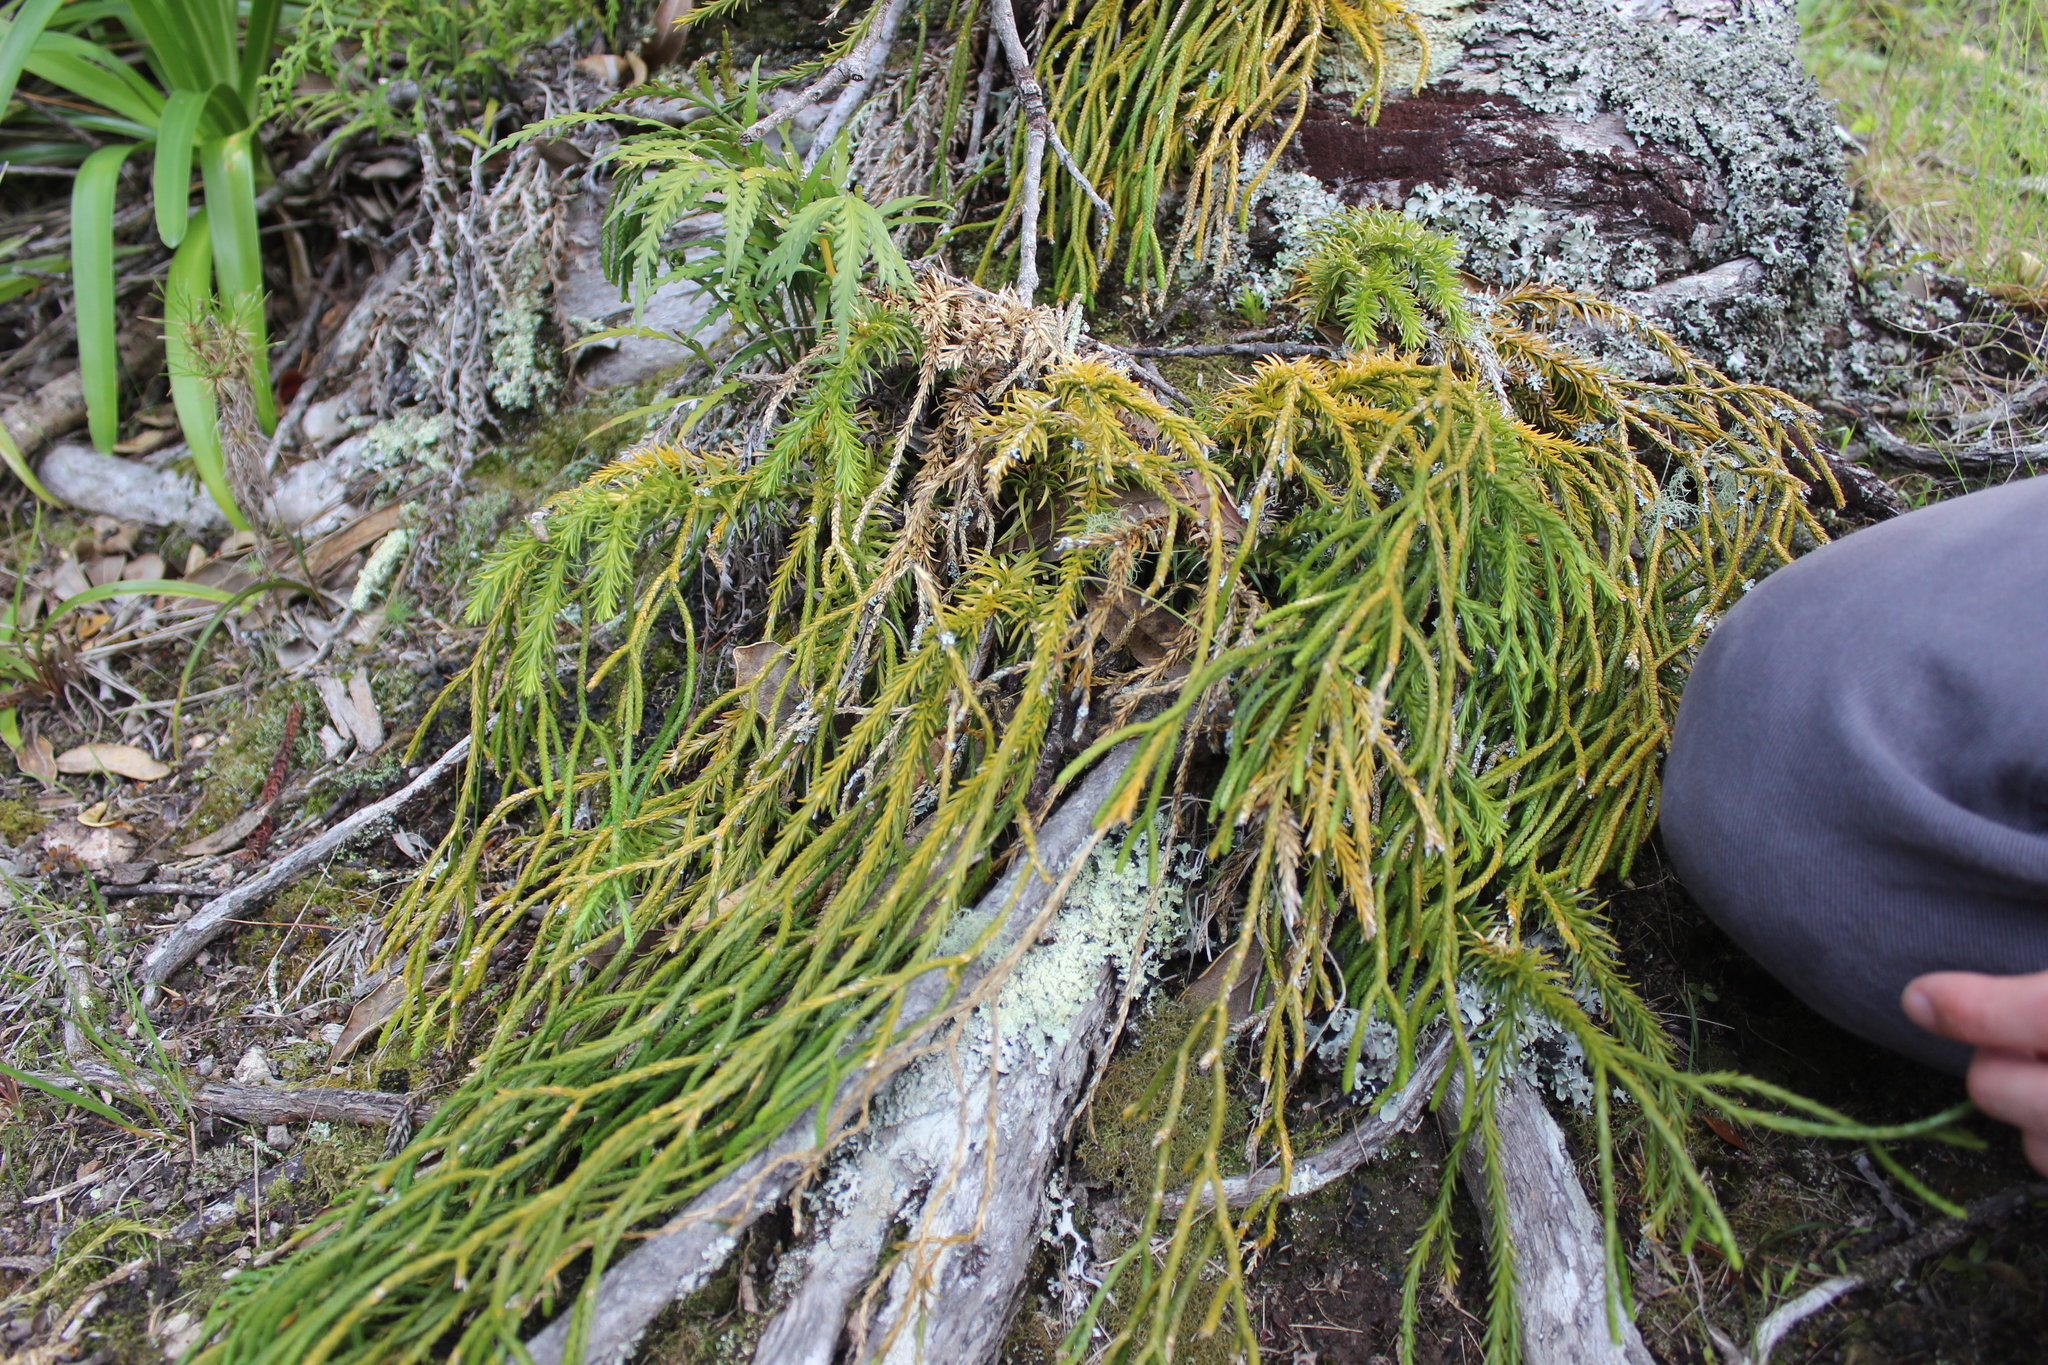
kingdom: Plantae
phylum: Tracheophyta
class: Lycopodiopsida
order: Lycopodiales
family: Lycopodiaceae
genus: Phlegmariurus
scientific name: Phlegmariurus billardierei
